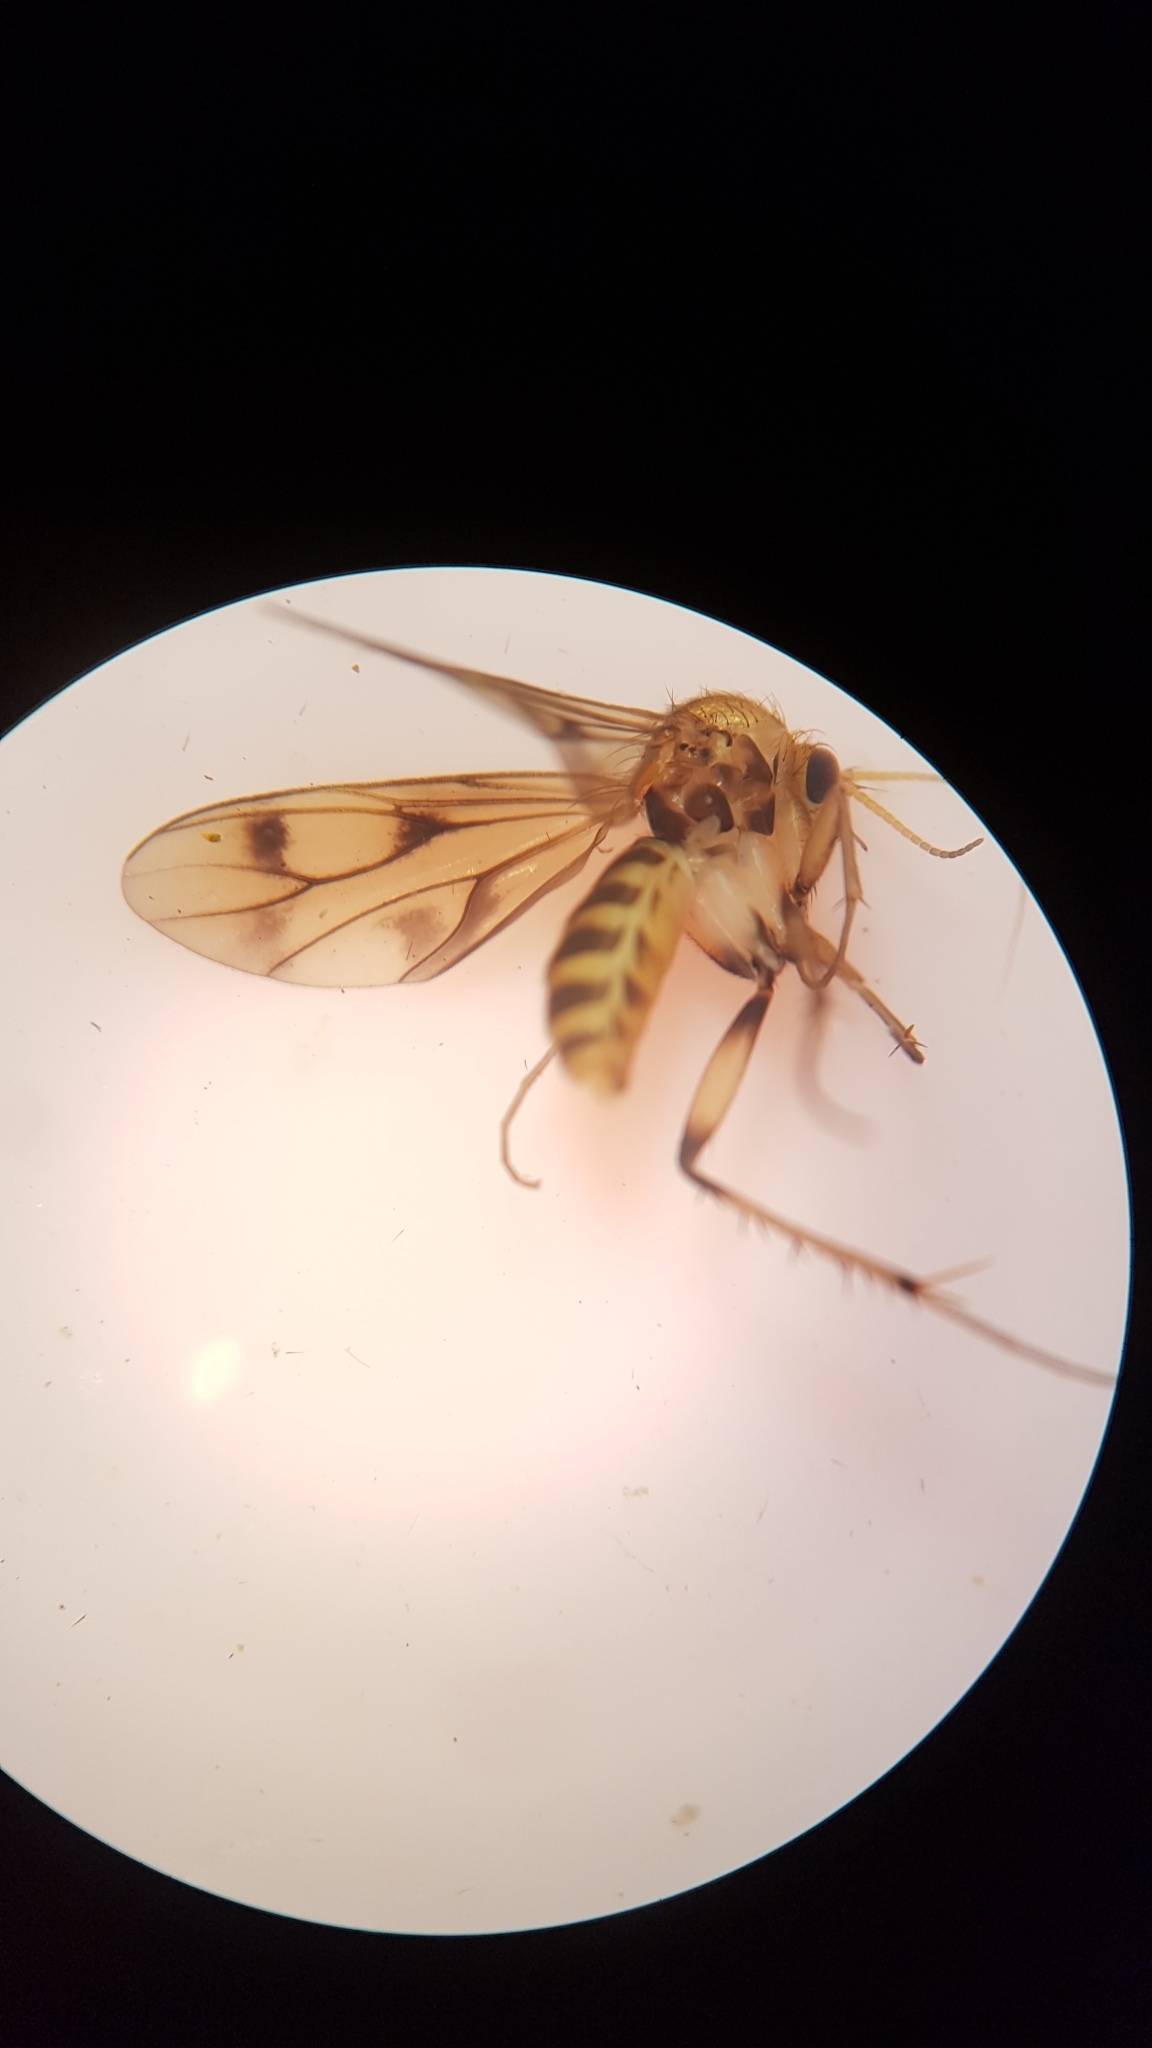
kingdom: Animalia
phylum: Arthropoda
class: Insecta
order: Diptera
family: Mycetophilidae
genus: Anomalomyia
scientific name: Anomalomyia guttata
